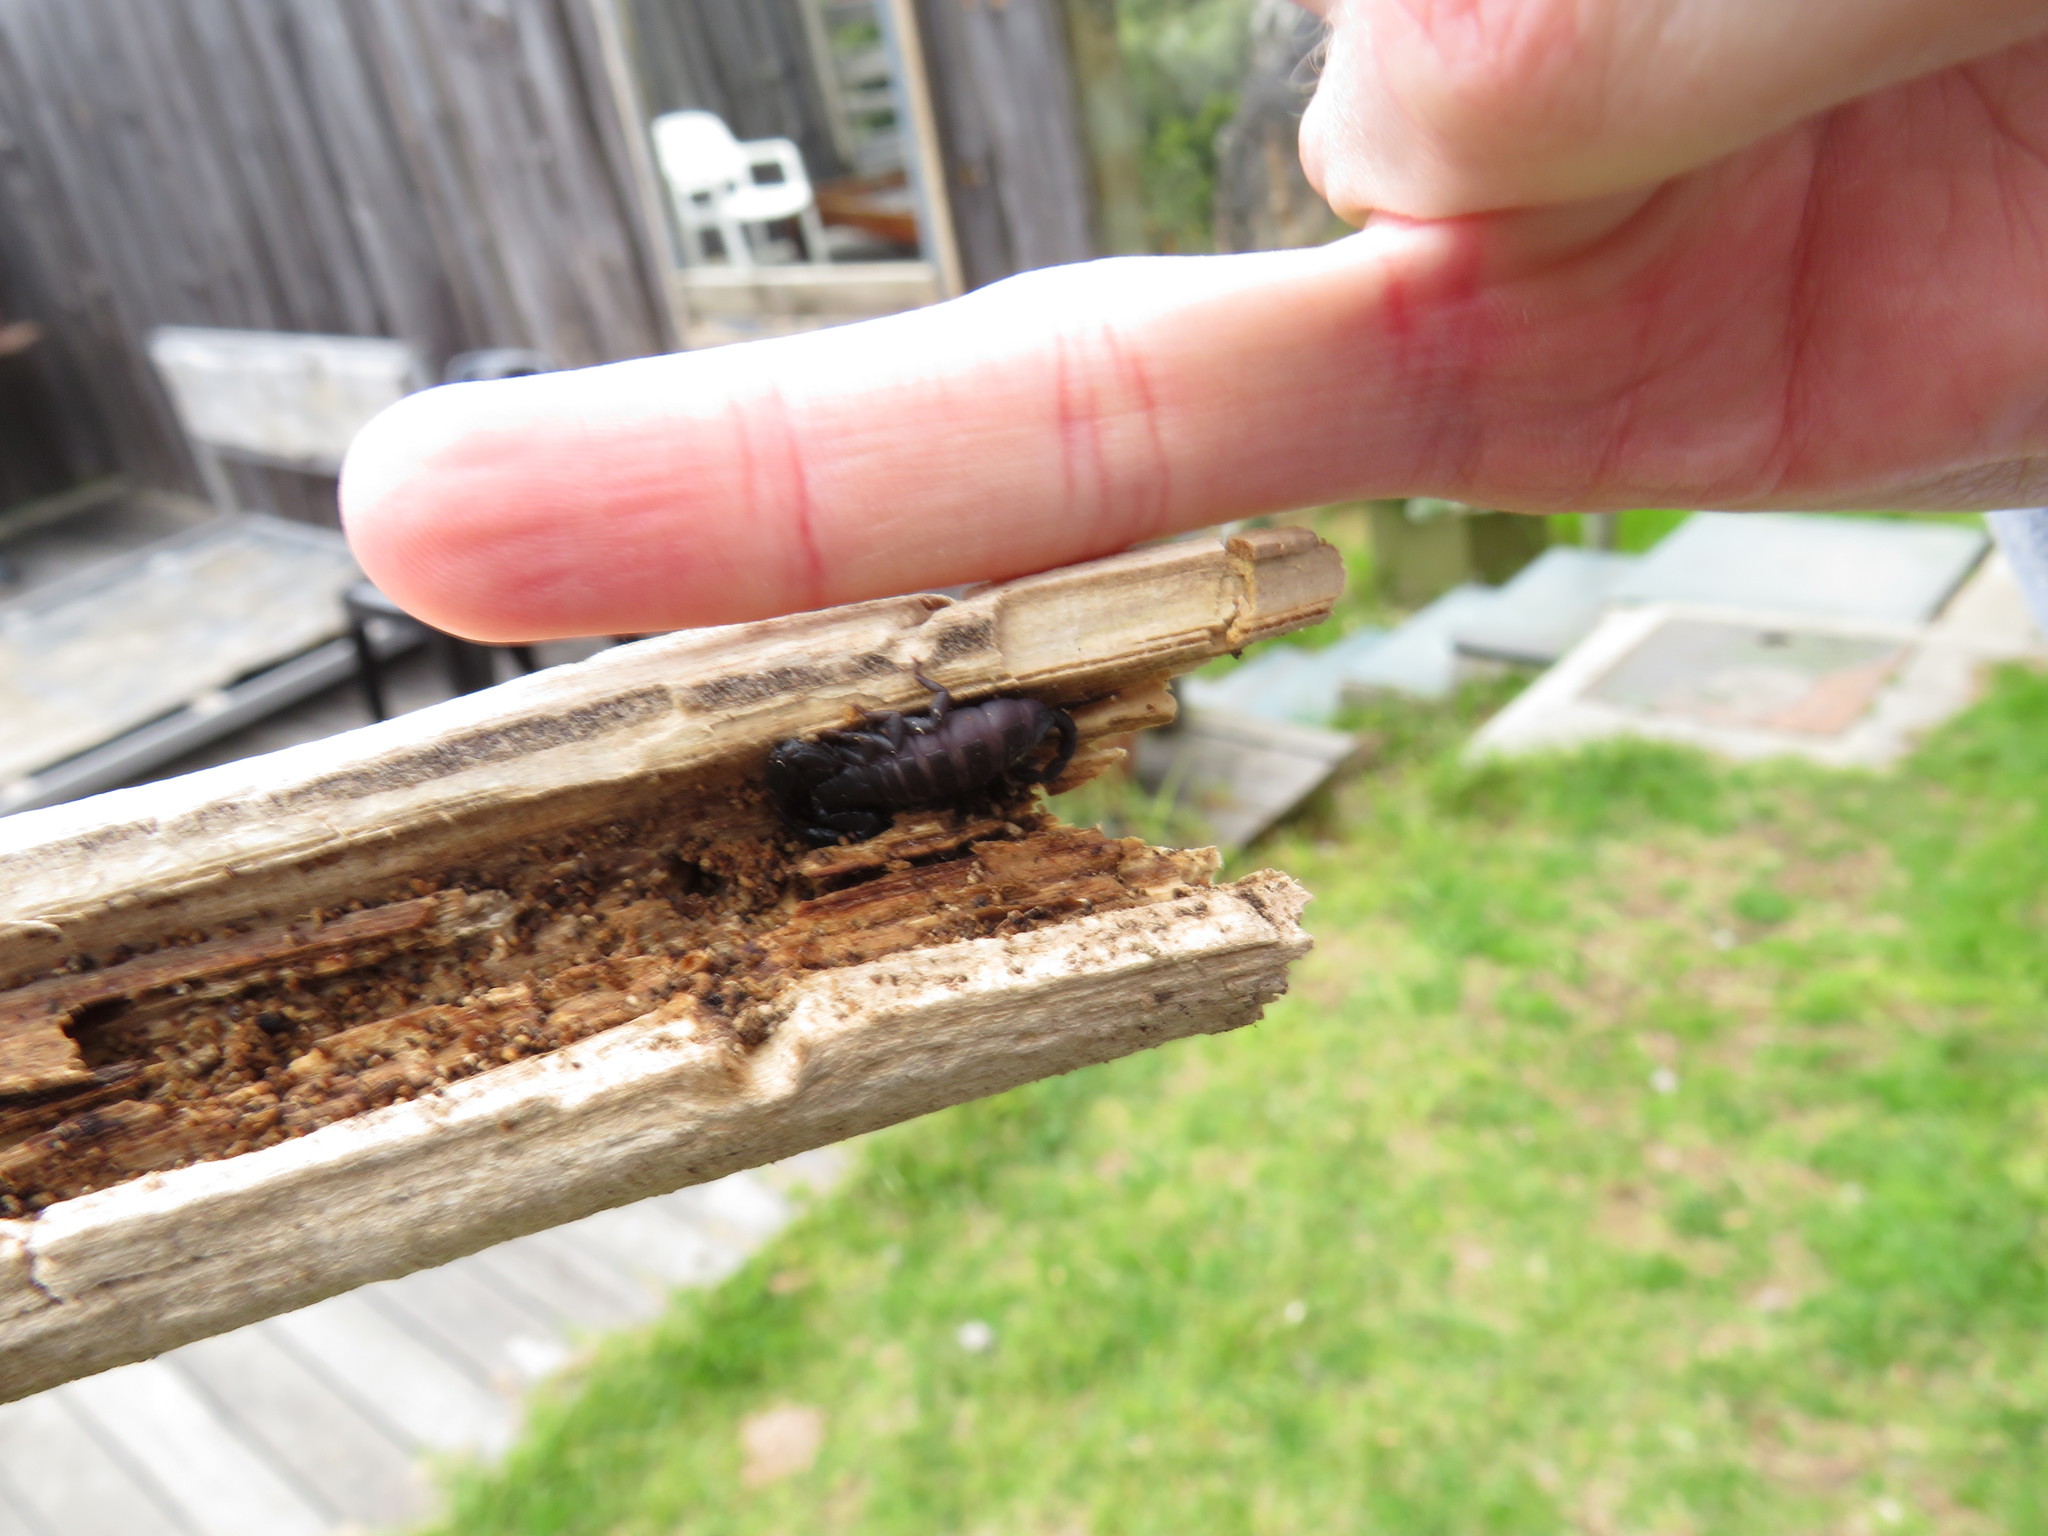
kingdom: Animalia
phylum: Arthropoda
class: Arachnida
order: Scorpiones
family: Hormuridae
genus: Opisthacanthus
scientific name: Opisthacanthus capensis
